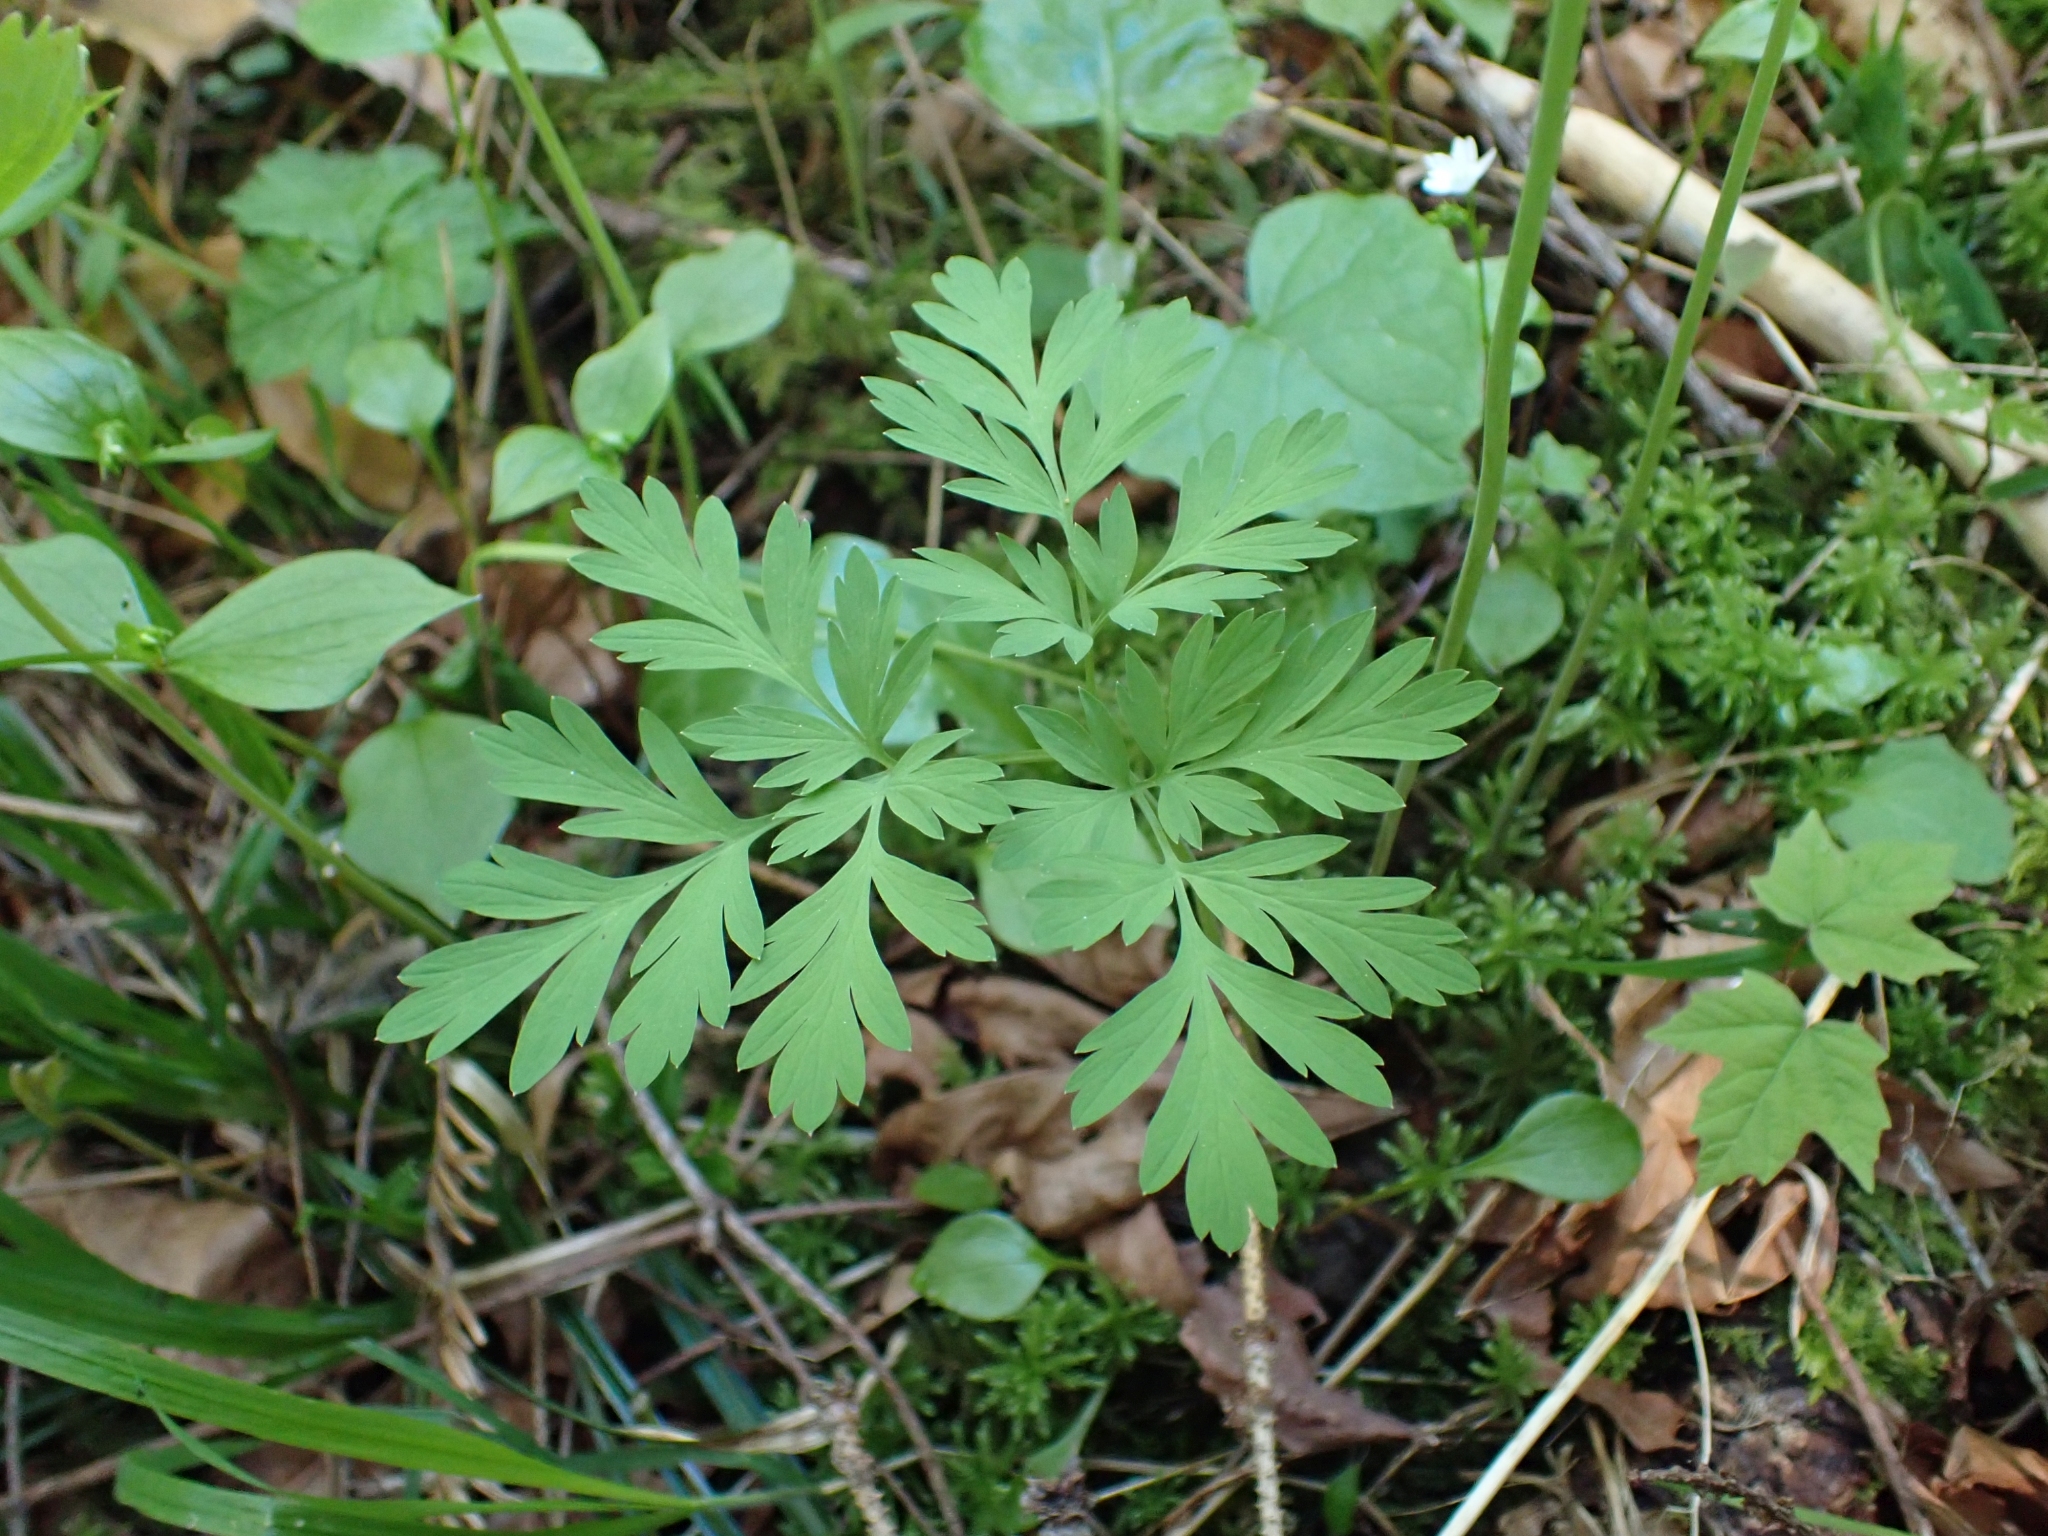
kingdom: Plantae
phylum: Tracheophyta
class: Magnoliopsida
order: Ranunculales
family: Papaveraceae
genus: Dicentra
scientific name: Dicentra formosa
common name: Bleeding-heart
